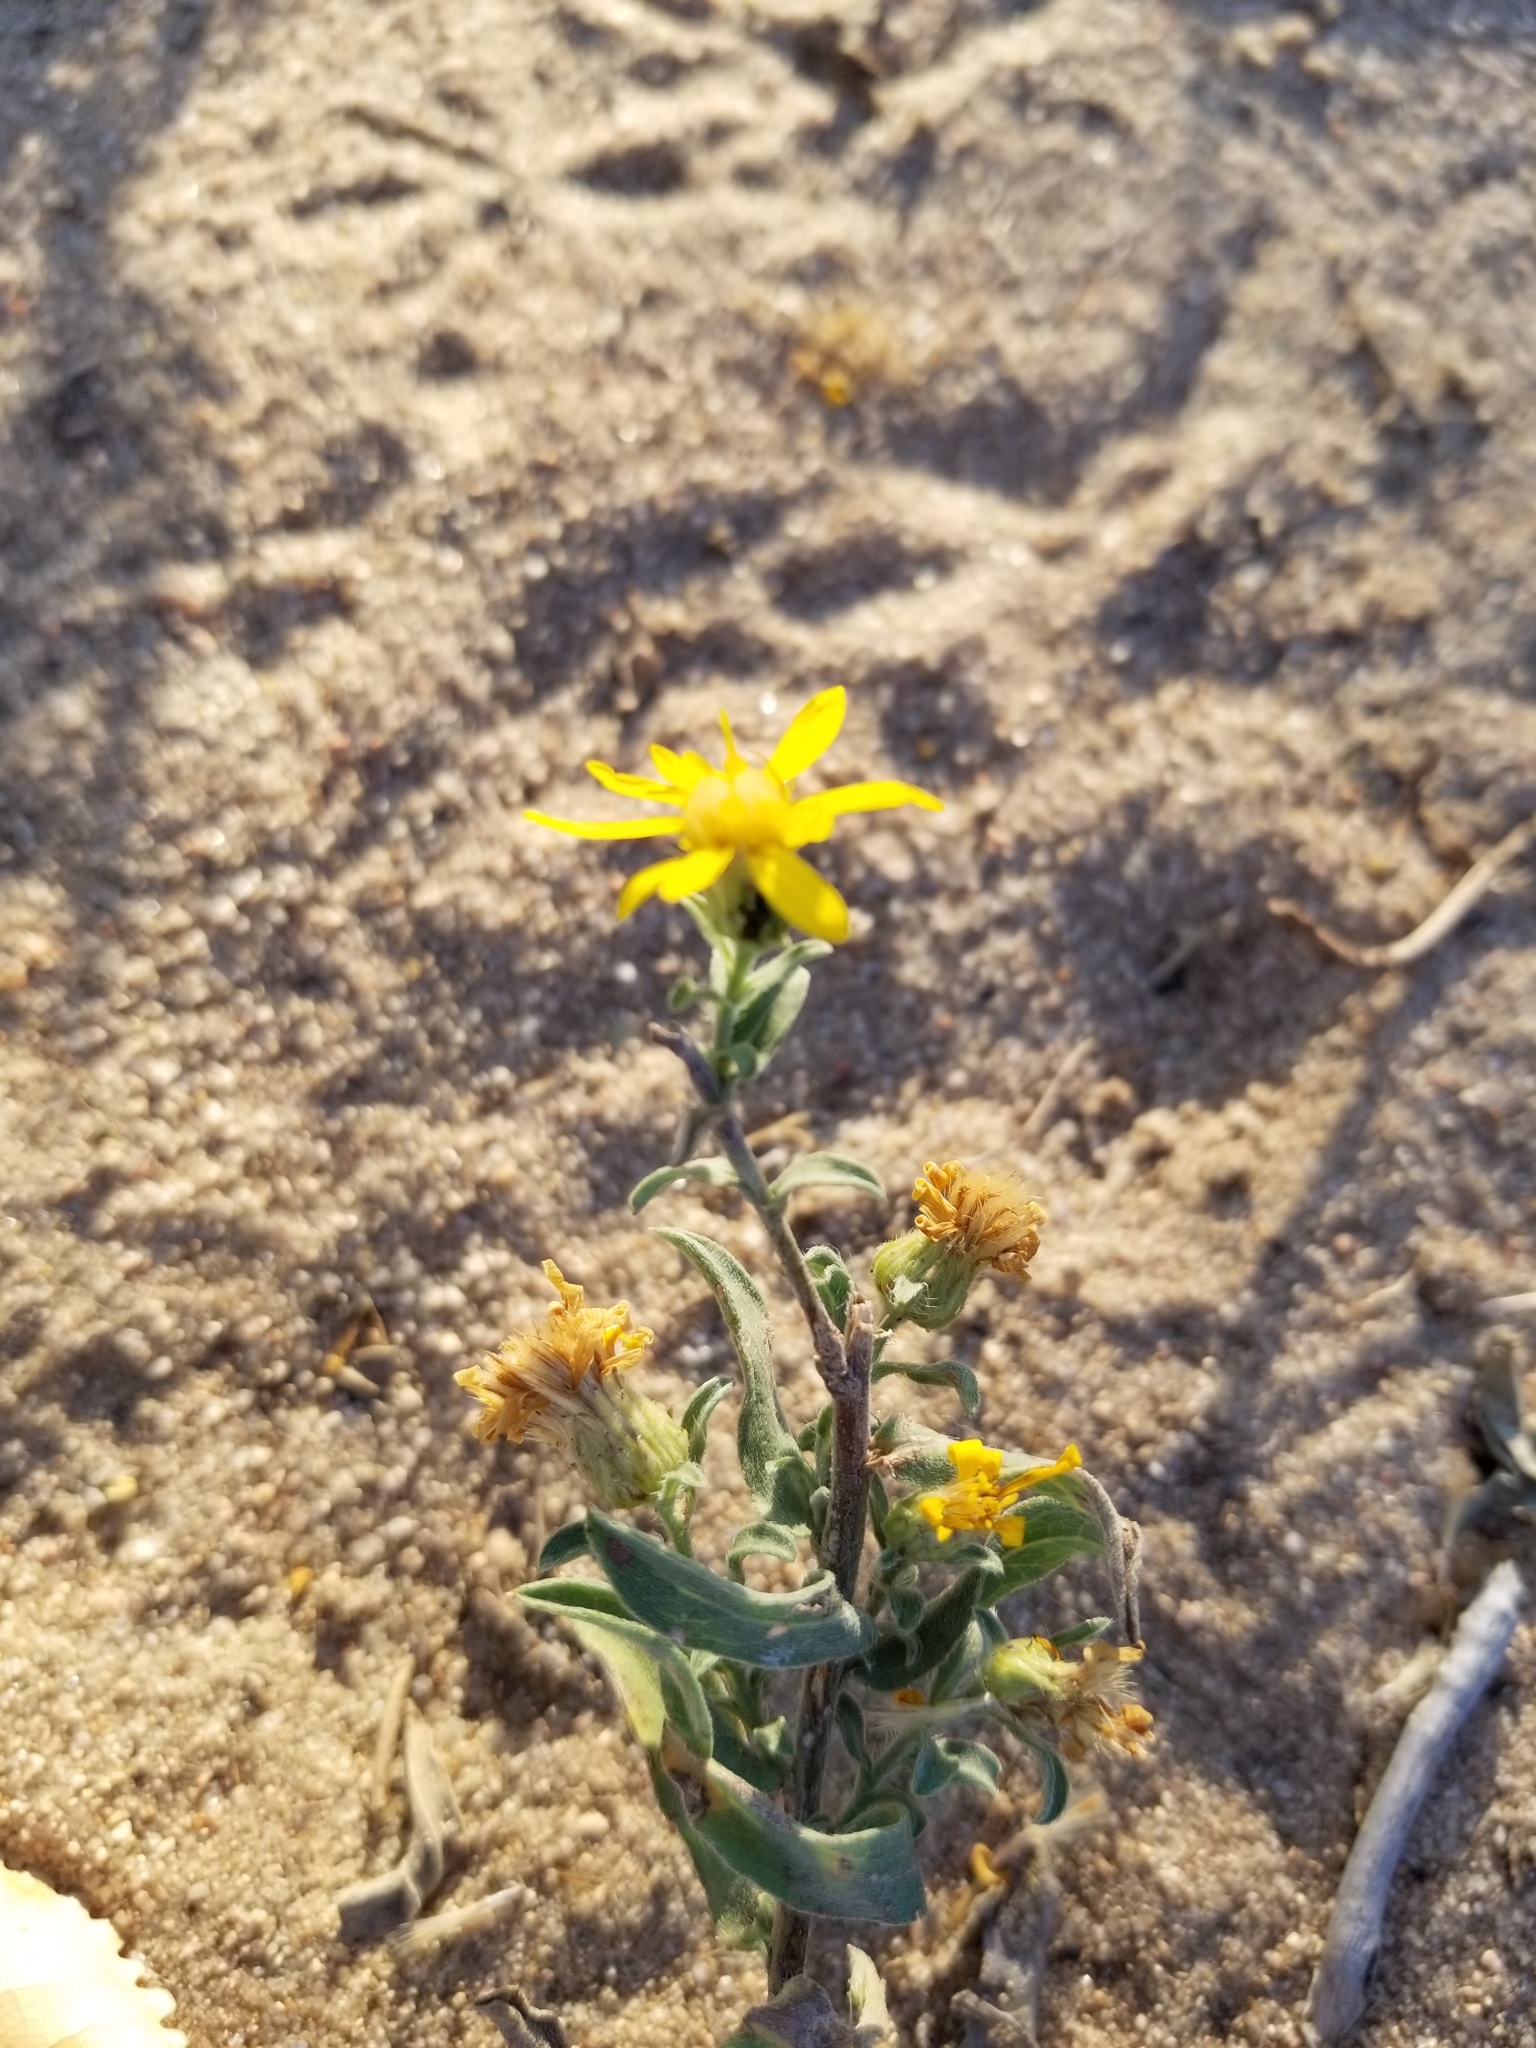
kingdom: Plantae
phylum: Tracheophyta
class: Magnoliopsida
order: Asterales
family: Asteraceae
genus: Heterotheca
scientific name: Heterotheca villosa
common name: Hairy false goldenaster
